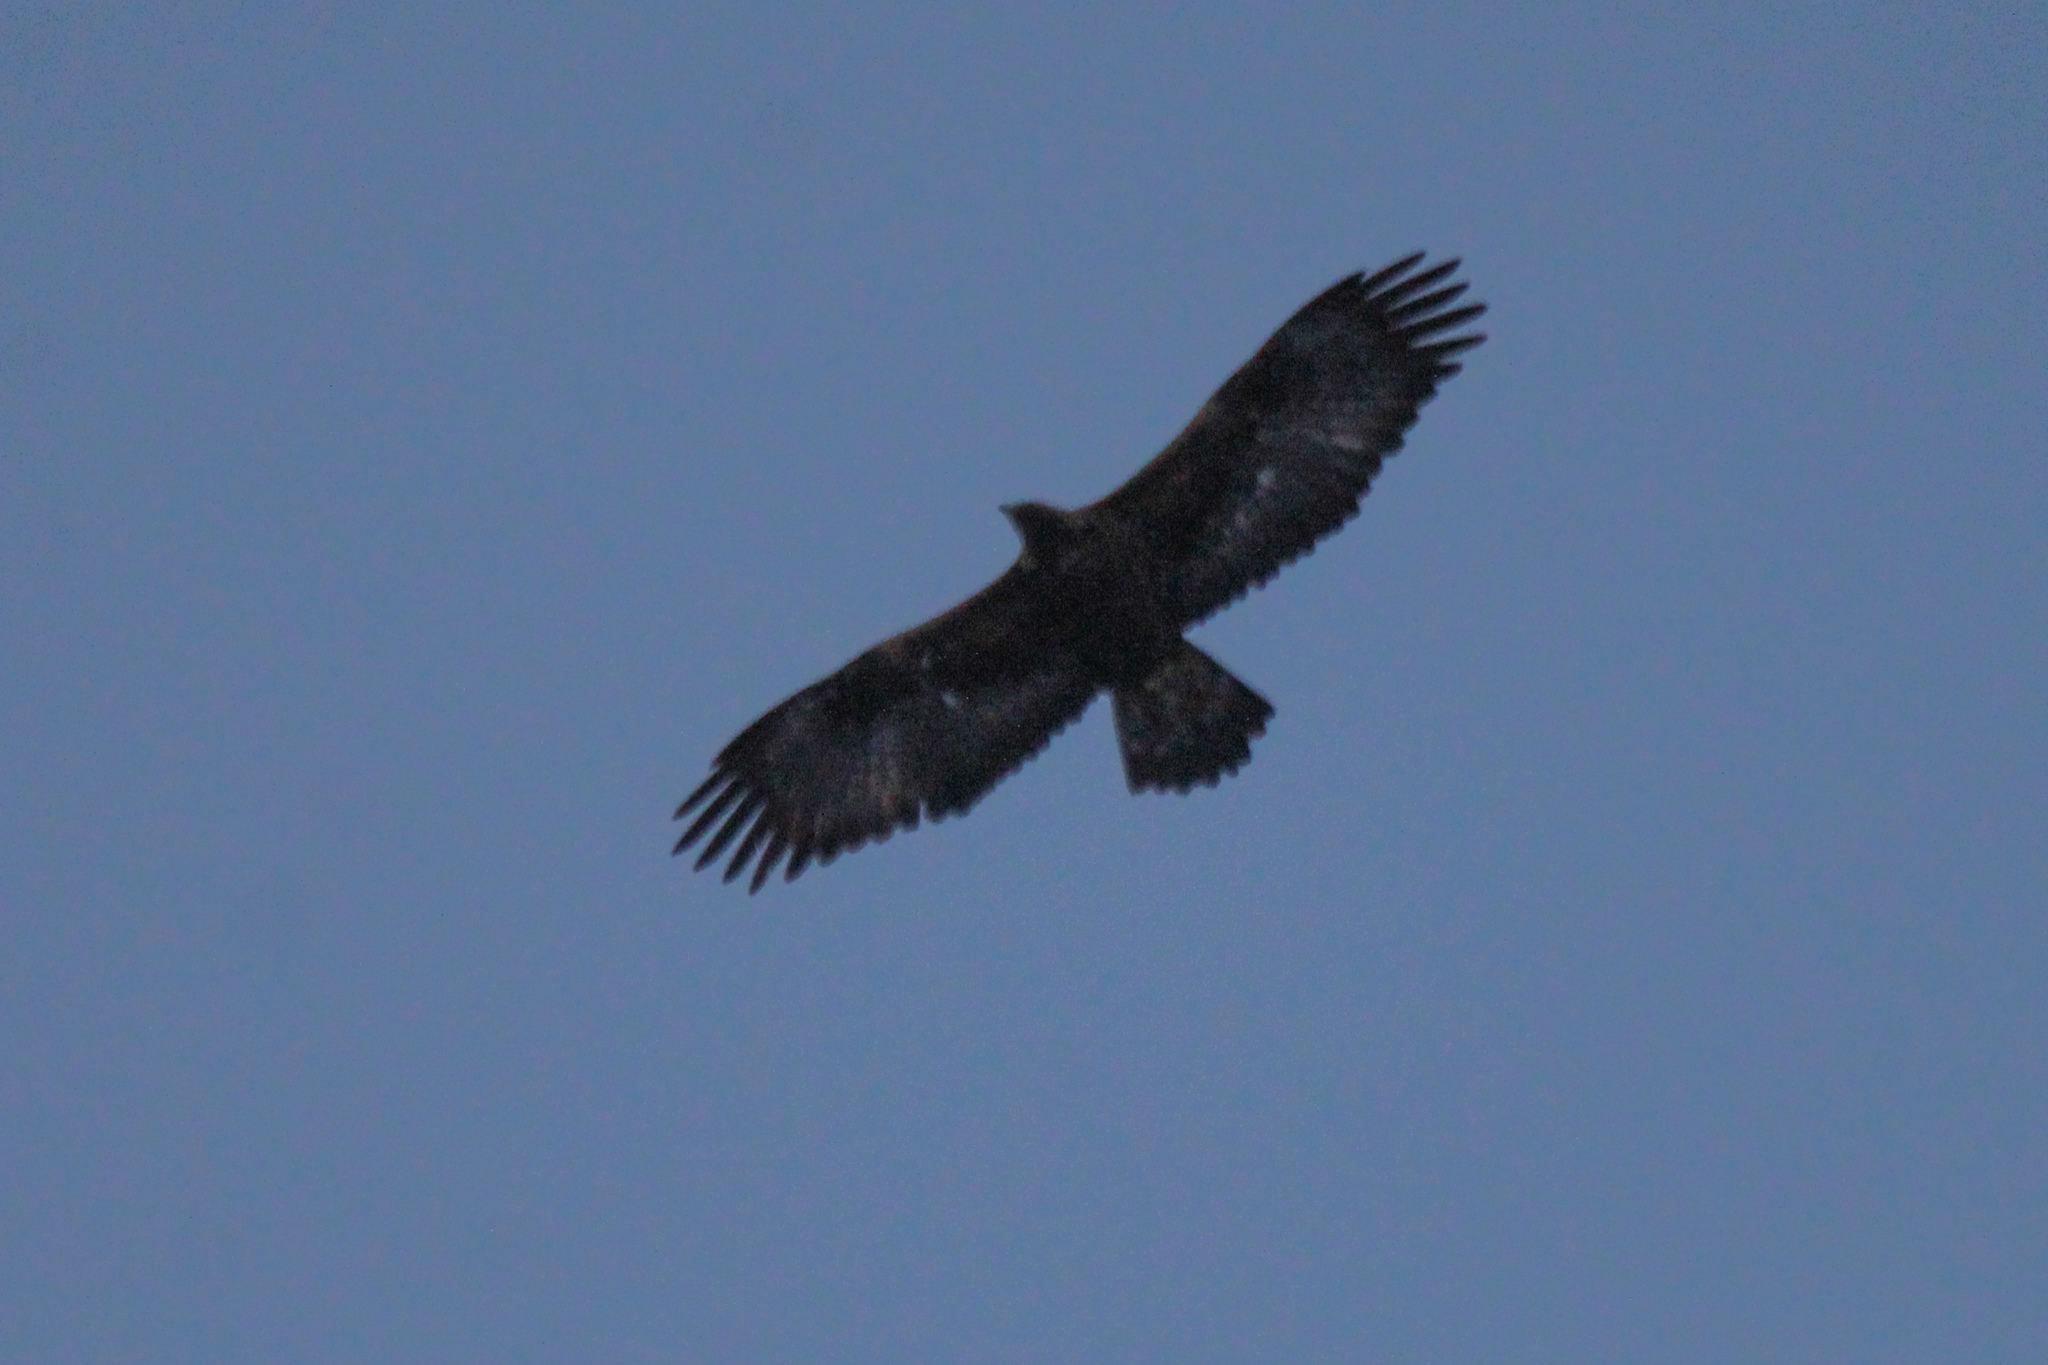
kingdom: Animalia
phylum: Chordata
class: Aves
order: Accipitriformes
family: Accipitridae
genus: Aquila
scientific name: Aquila chrysaetos
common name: Golden eagle
